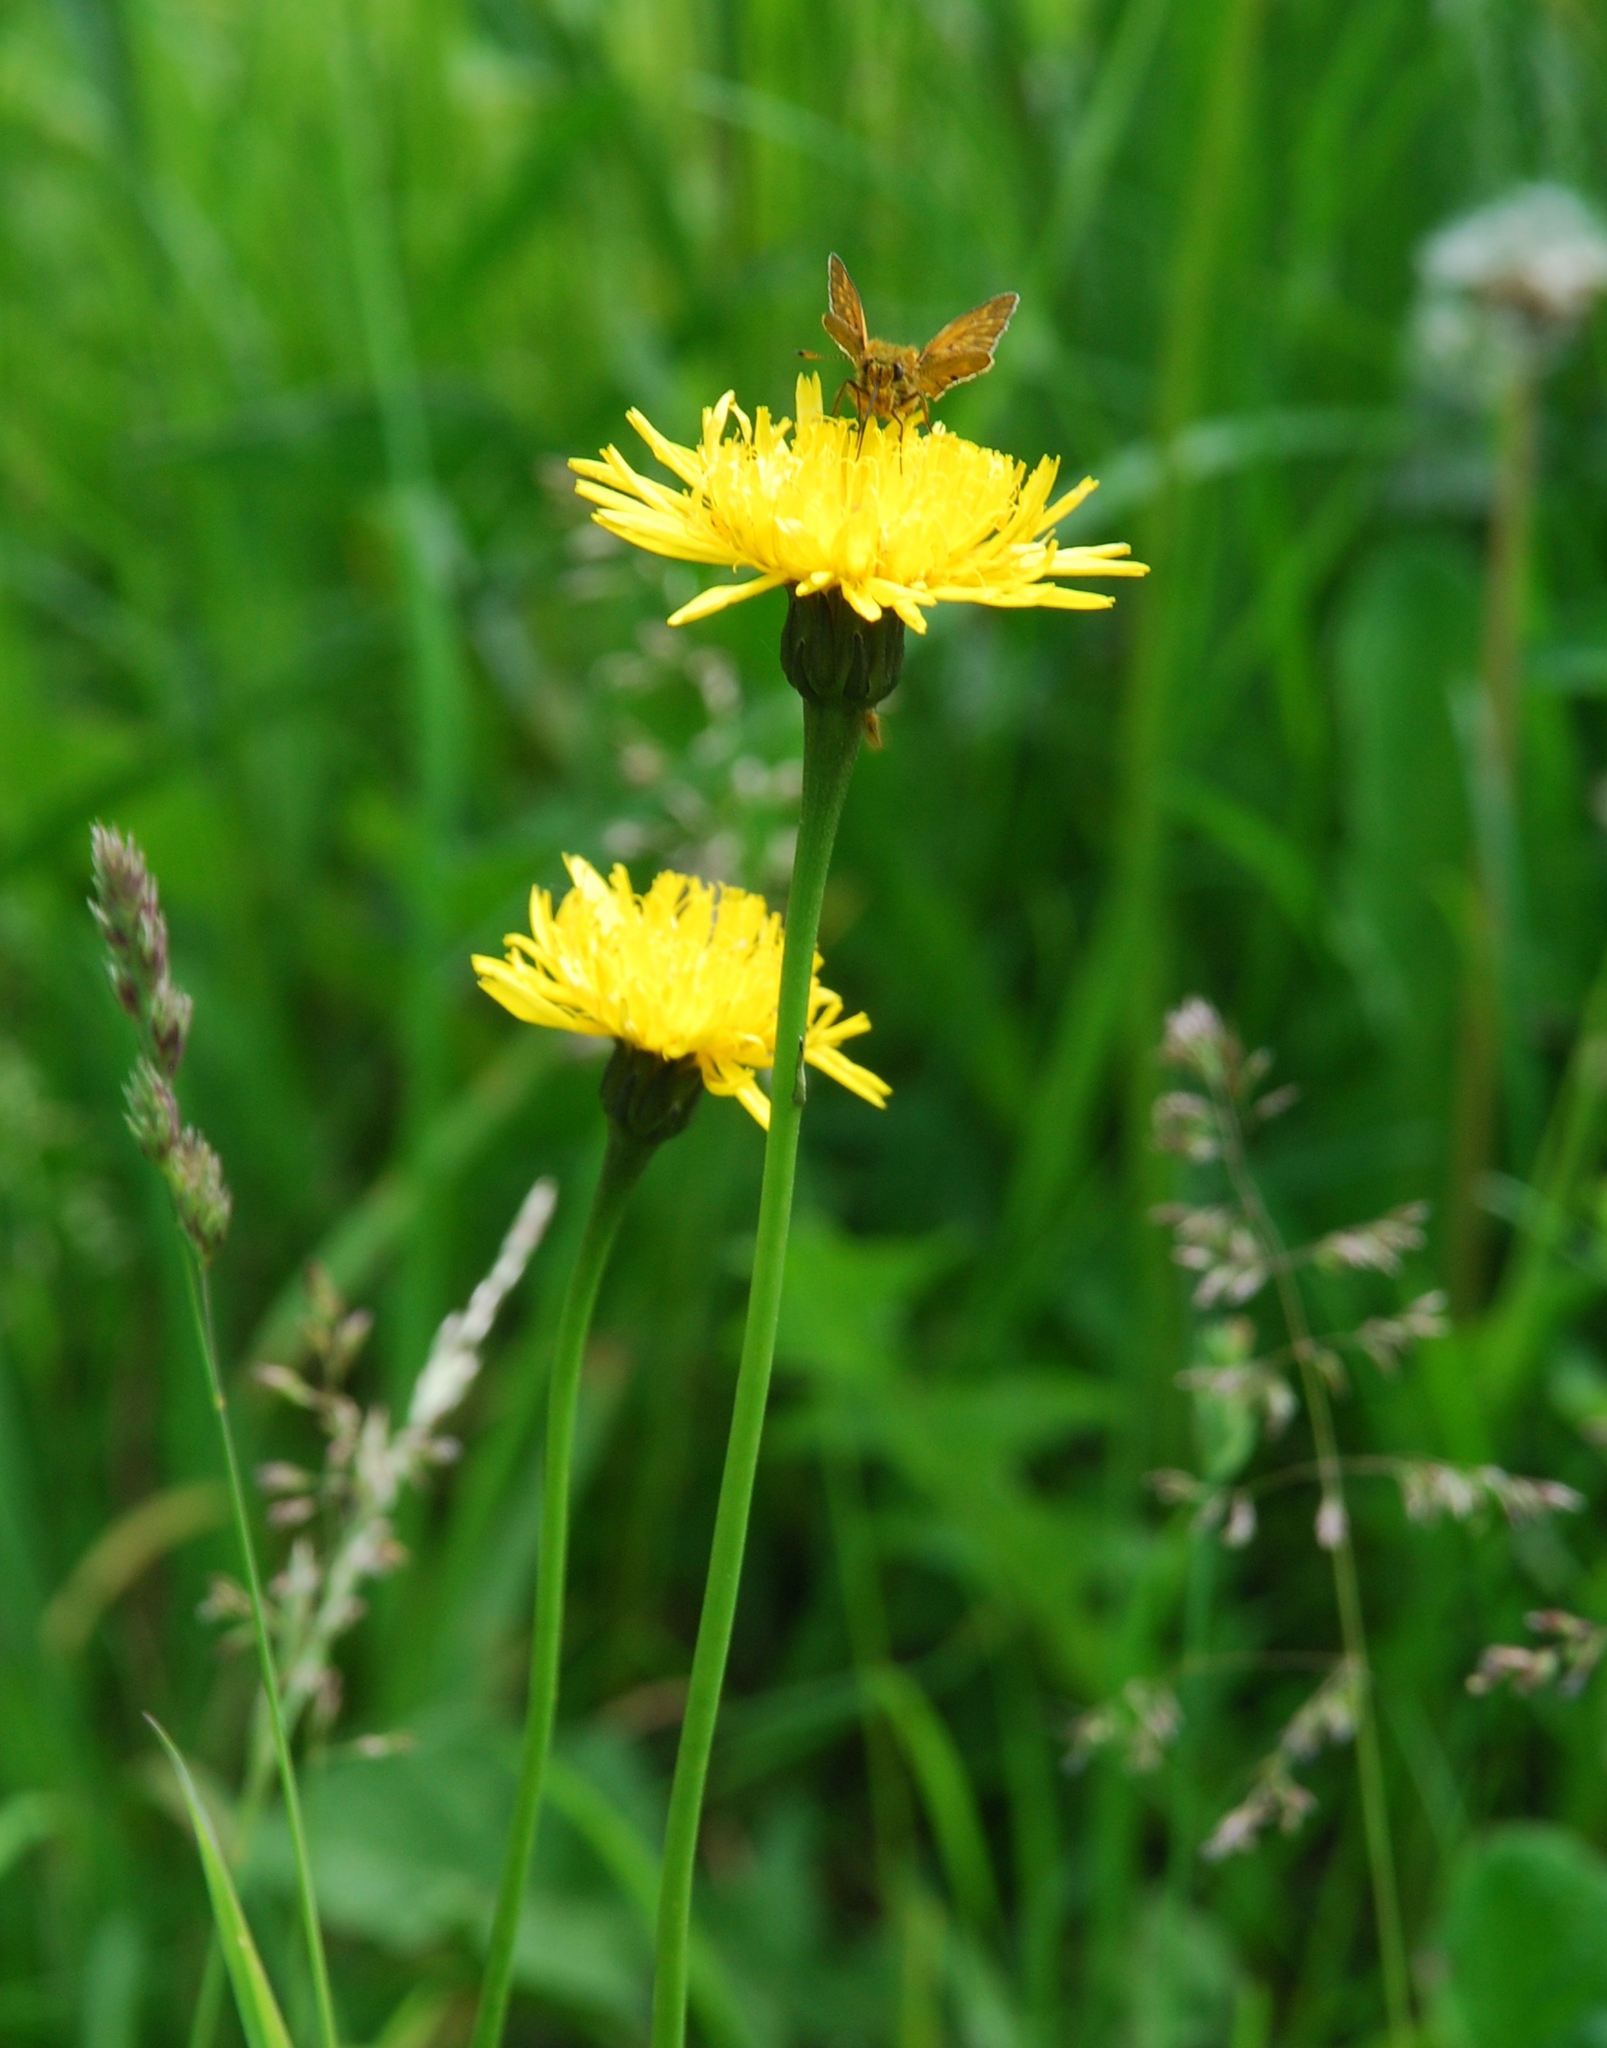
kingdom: Plantae
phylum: Tracheophyta
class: Magnoliopsida
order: Asterales
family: Asteraceae
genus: Leontodon
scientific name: Leontodon hispidus
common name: Rough hawkbit
